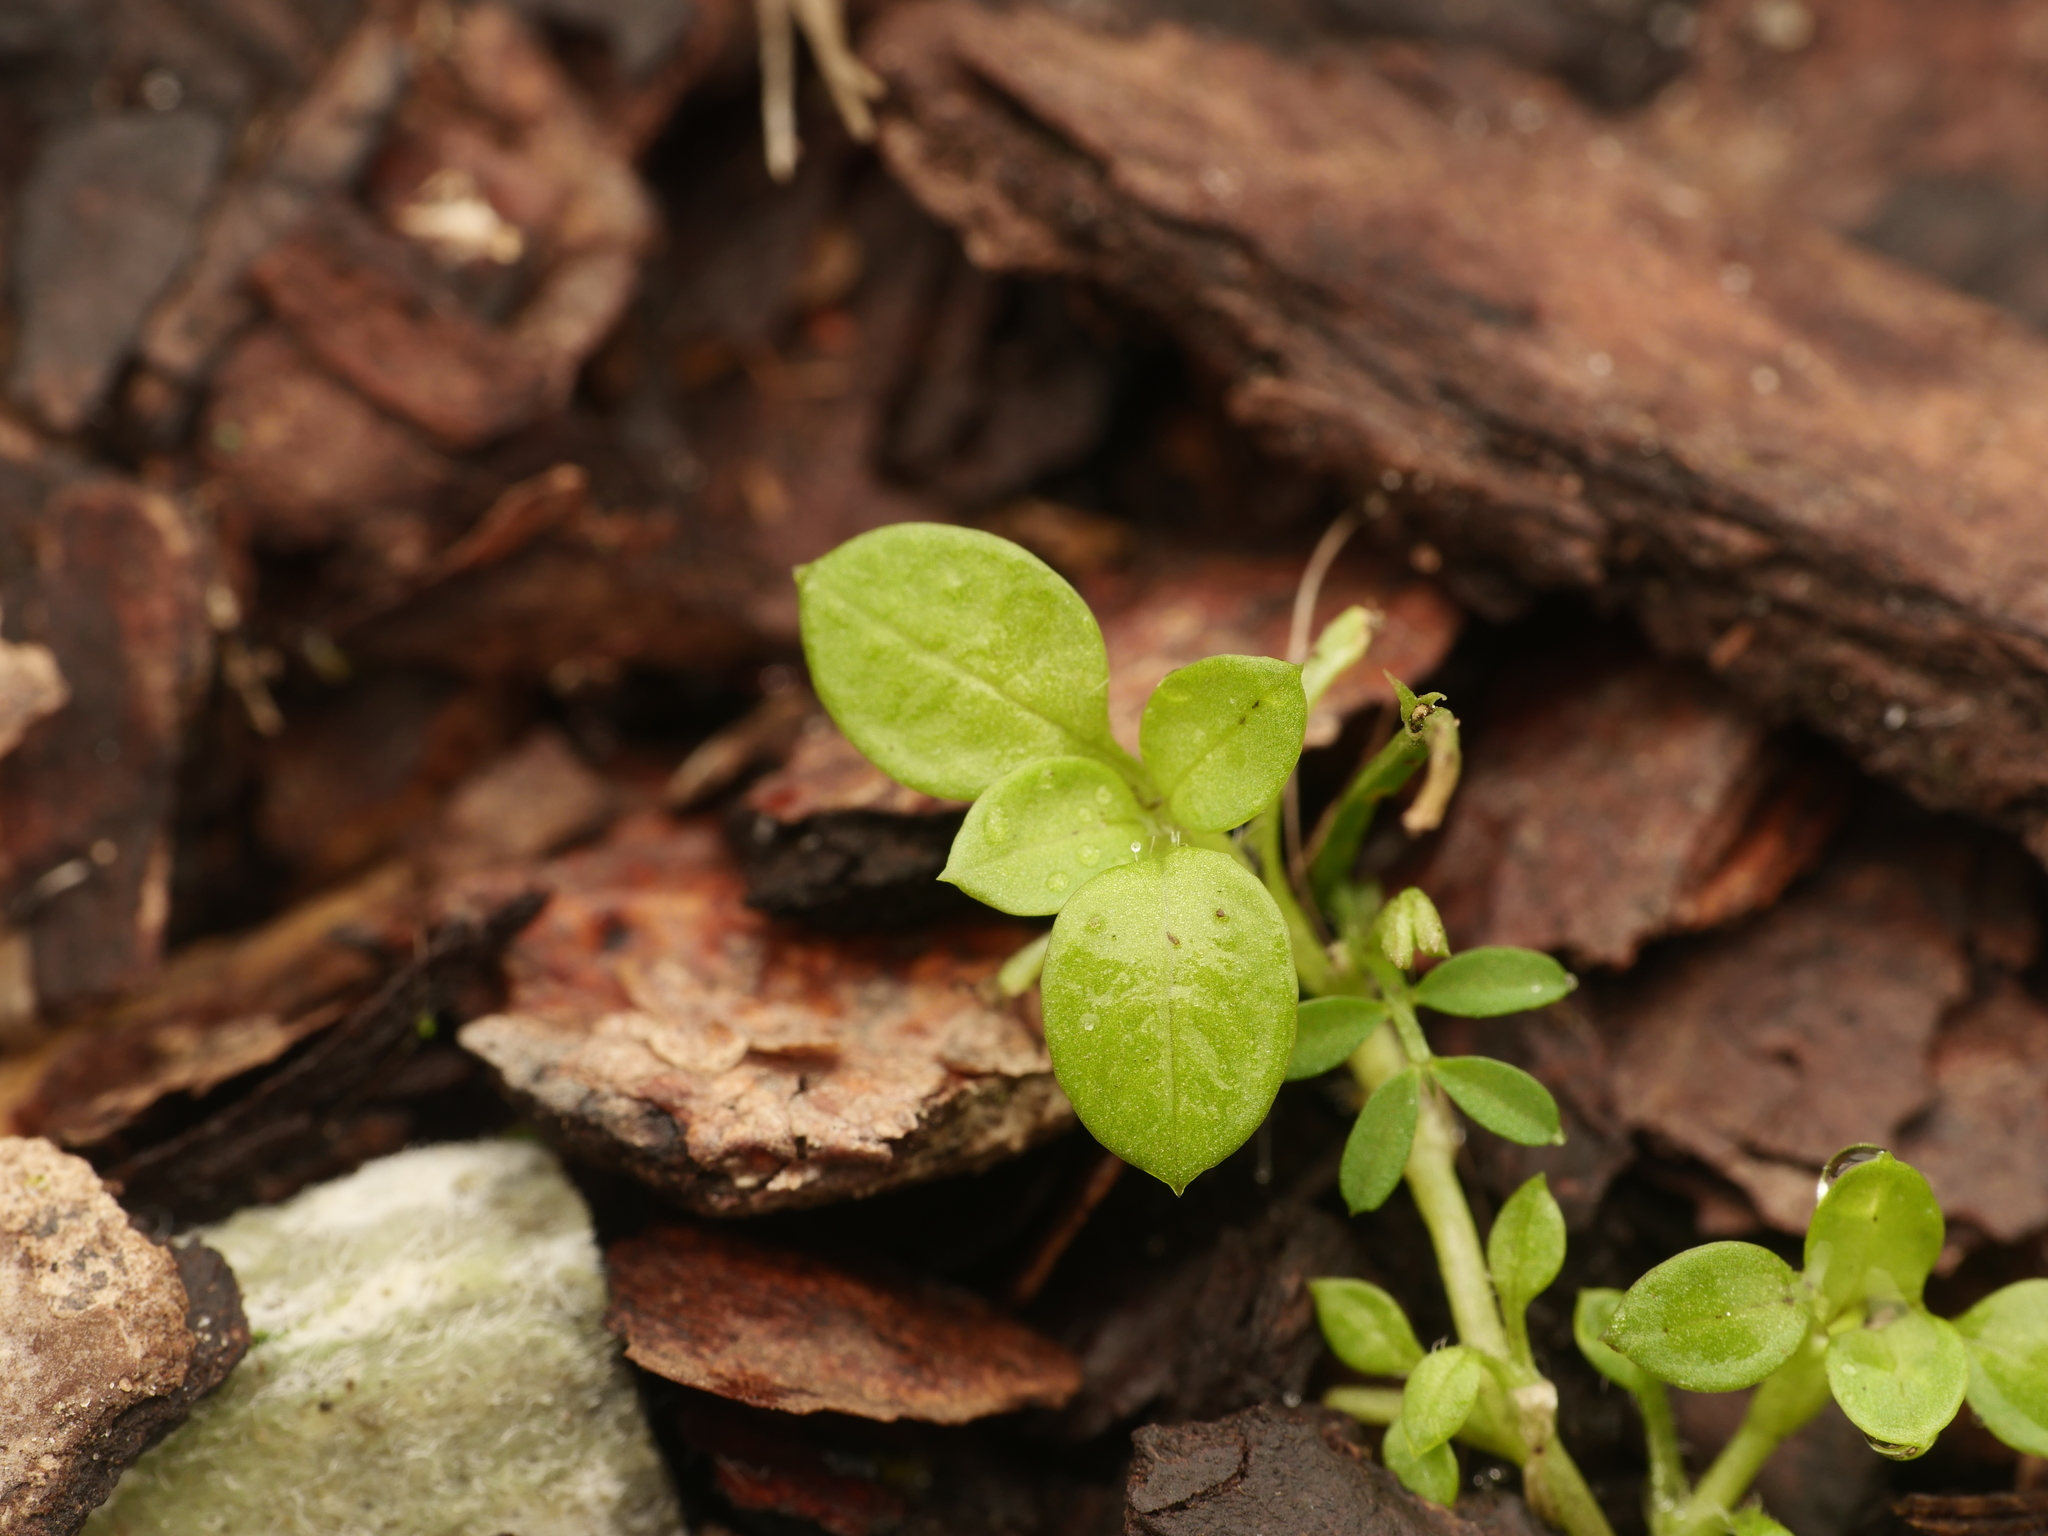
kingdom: Plantae
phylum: Tracheophyta
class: Magnoliopsida
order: Caryophyllales
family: Caryophyllaceae
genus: Stellaria
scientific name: Stellaria media
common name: Common chickweed
